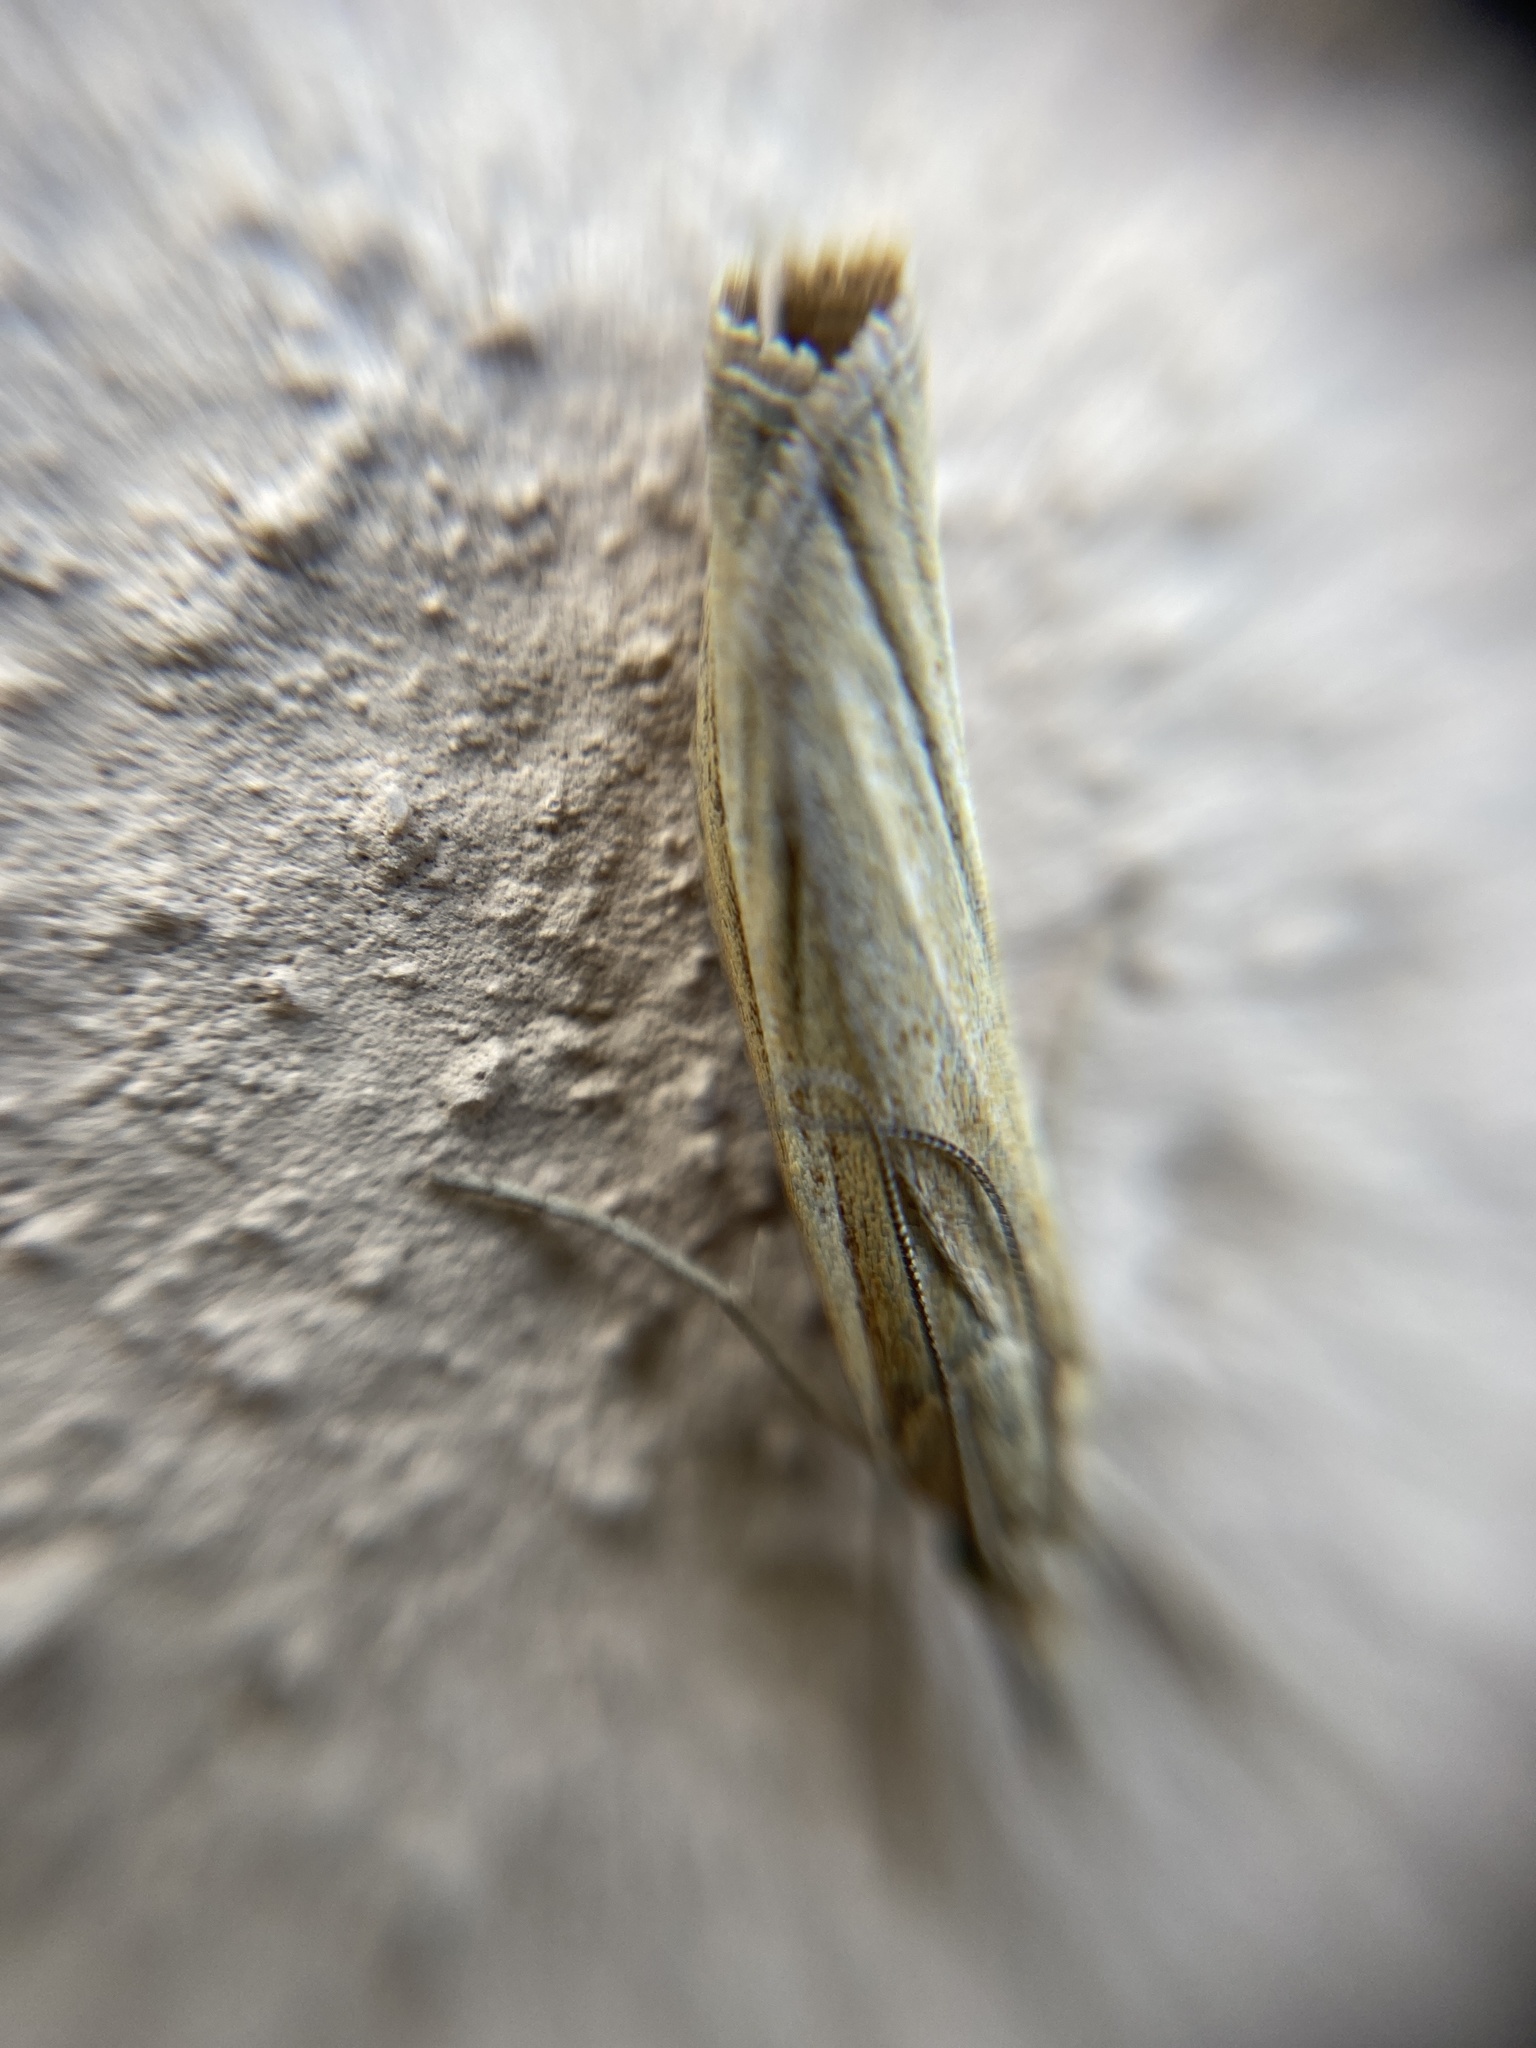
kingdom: Animalia
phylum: Arthropoda
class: Insecta
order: Lepidoptera
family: Crambidae
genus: Agriphila
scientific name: Agriphila tristellus
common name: Common grass-veneer
